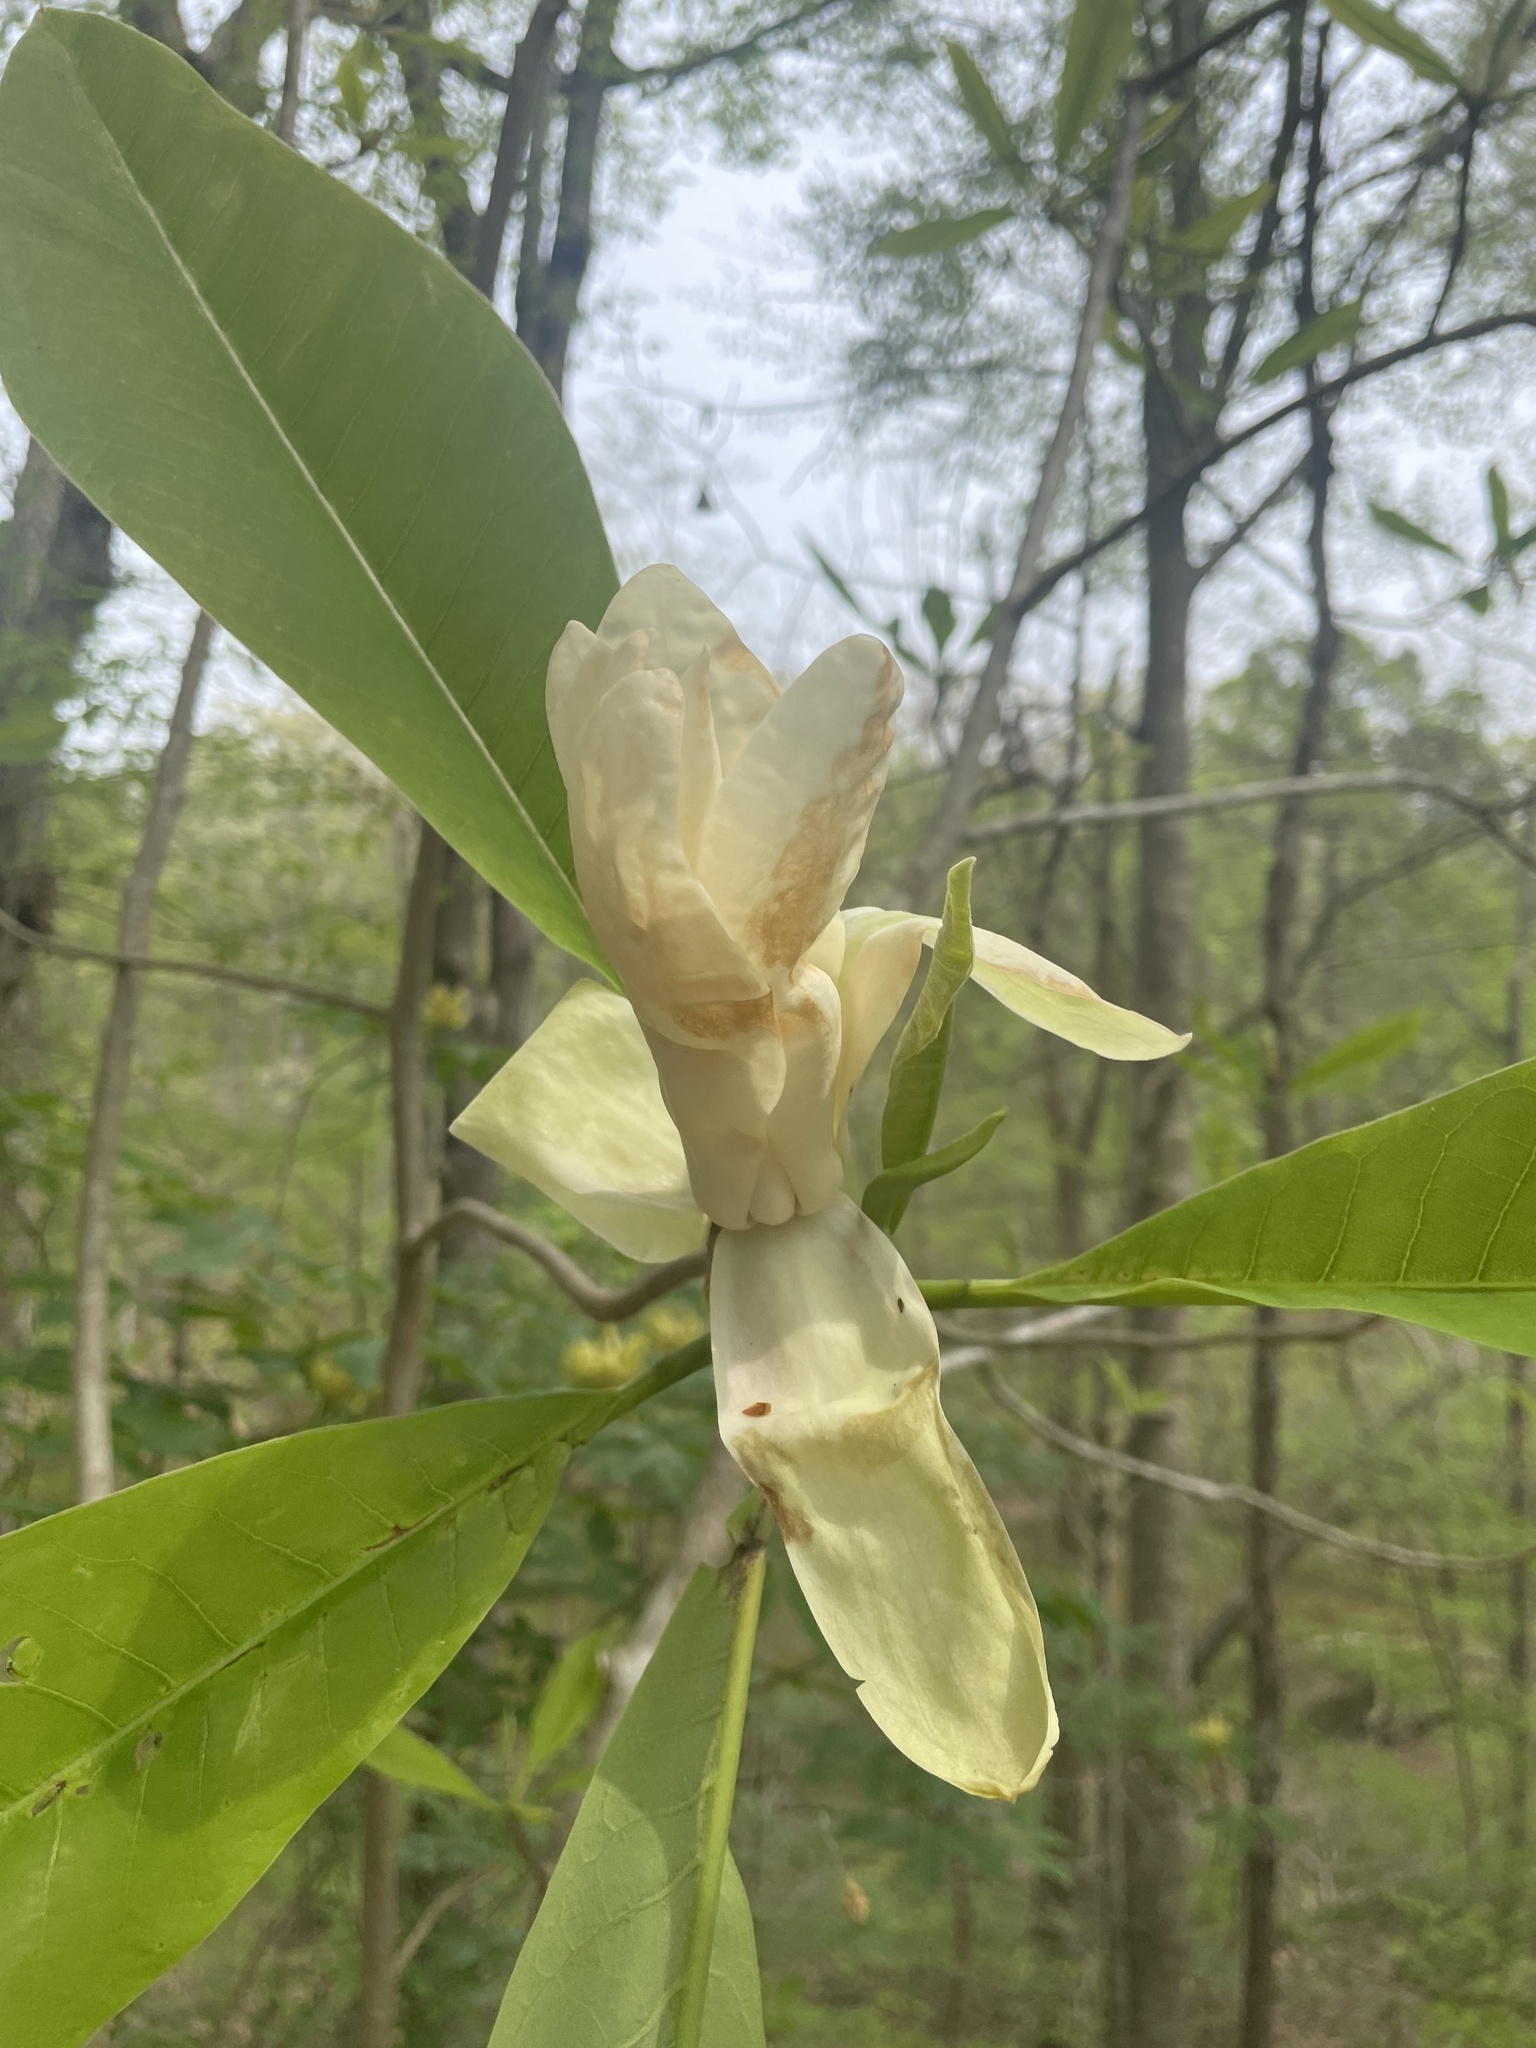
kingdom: Plantae
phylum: Tracheophyta
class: Magnoliopsida
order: Magnoliales
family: Magnoliaceae
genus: Magnolia
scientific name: Magnolia tripetala
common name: Umbrella magnolia
